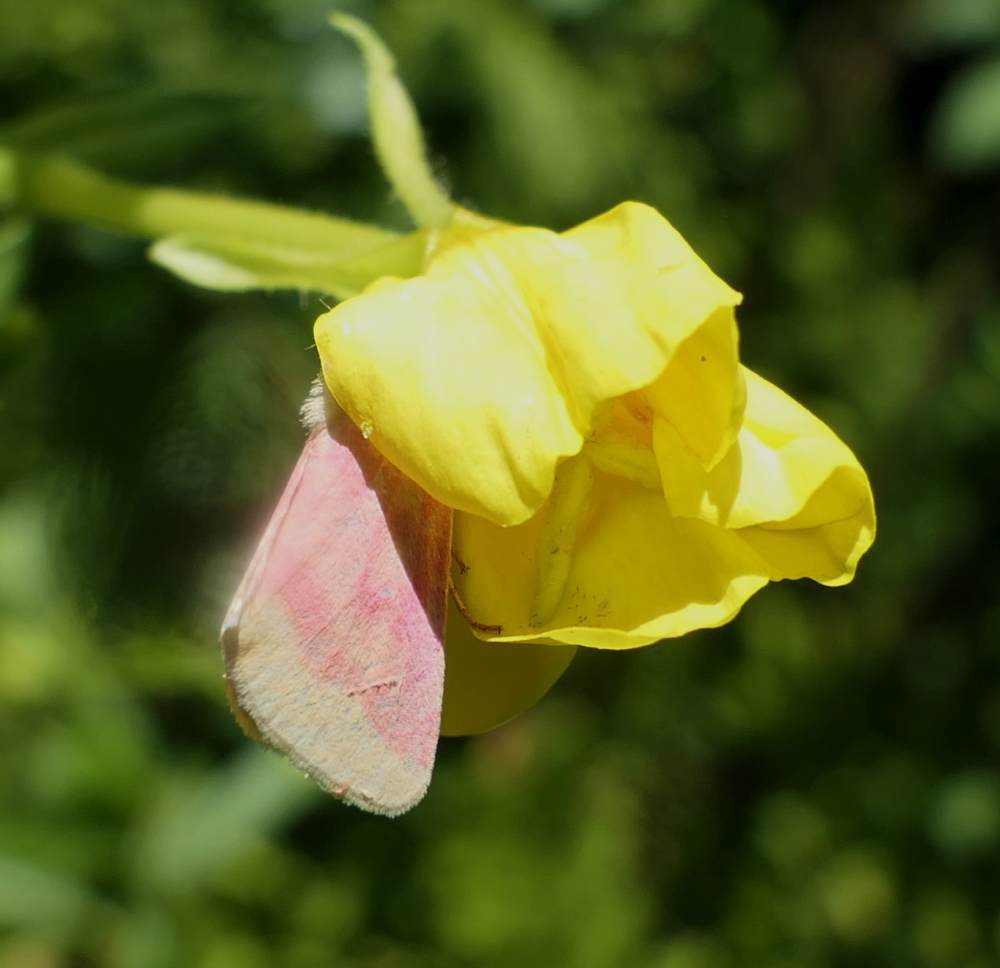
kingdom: Animalia
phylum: Arthropoda
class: Insecta
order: Lepidoptera
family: Noctuidae
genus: Schinia
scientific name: Schinia florida
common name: Primrose moth
